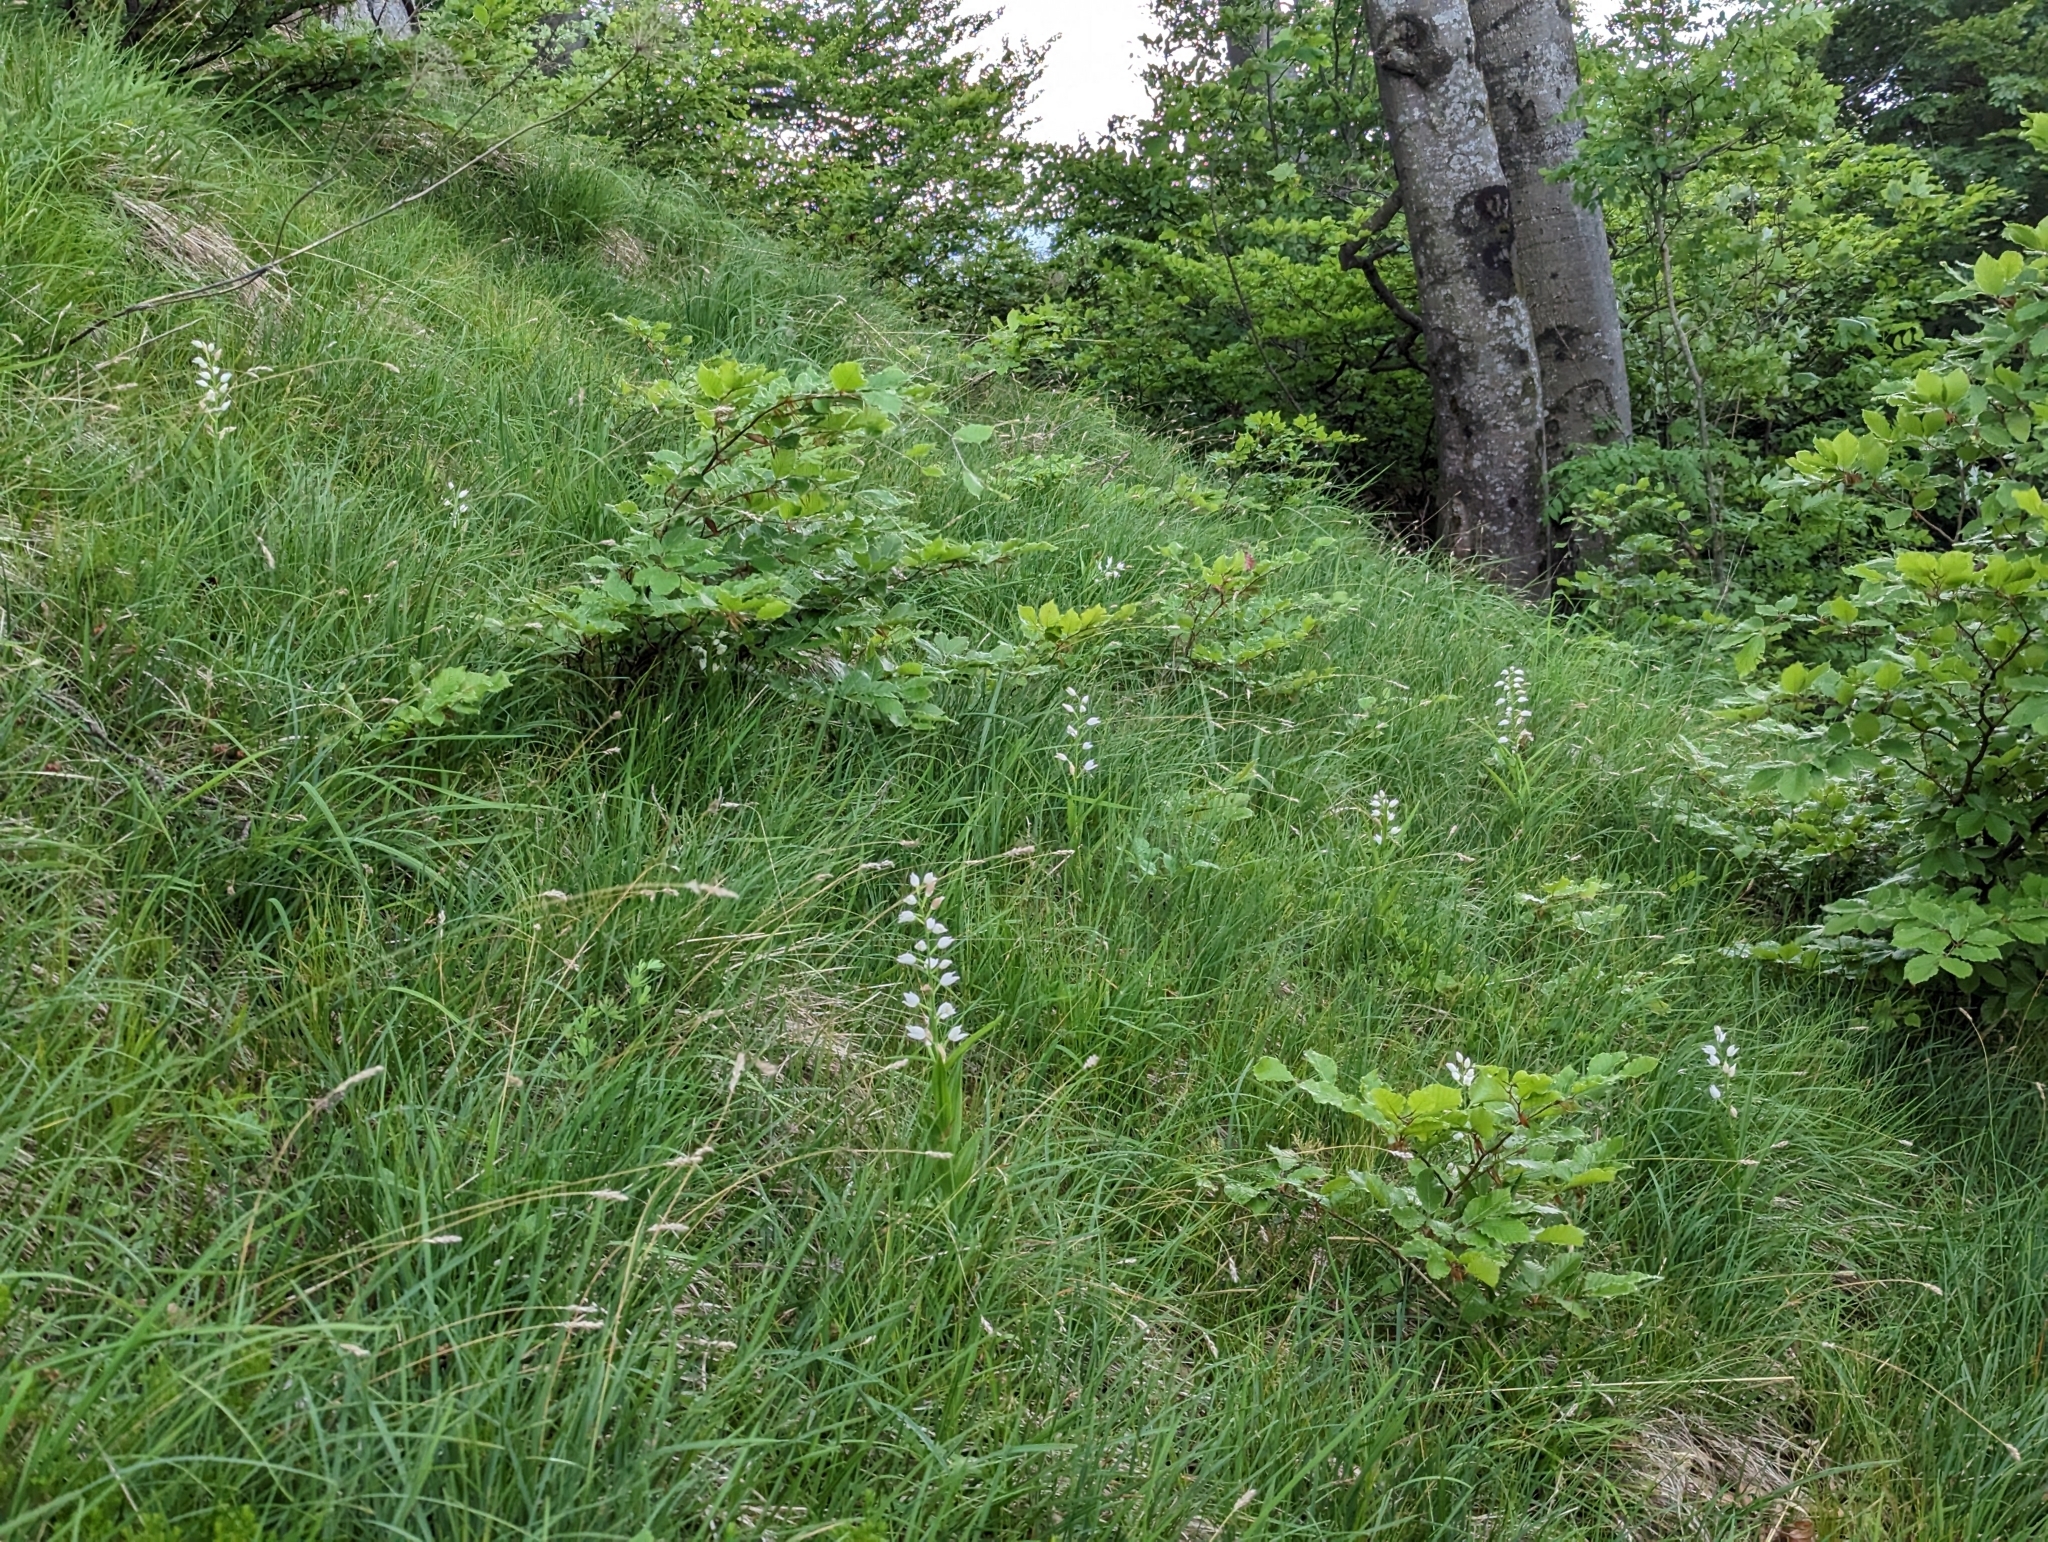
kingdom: Plantae
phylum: Tracheophyta
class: Liliopsida
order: Asparagales
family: Orchidaceae
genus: Cephalanthera
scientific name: Cephalanthera longifolia
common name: Narrow-leaved helleborine
